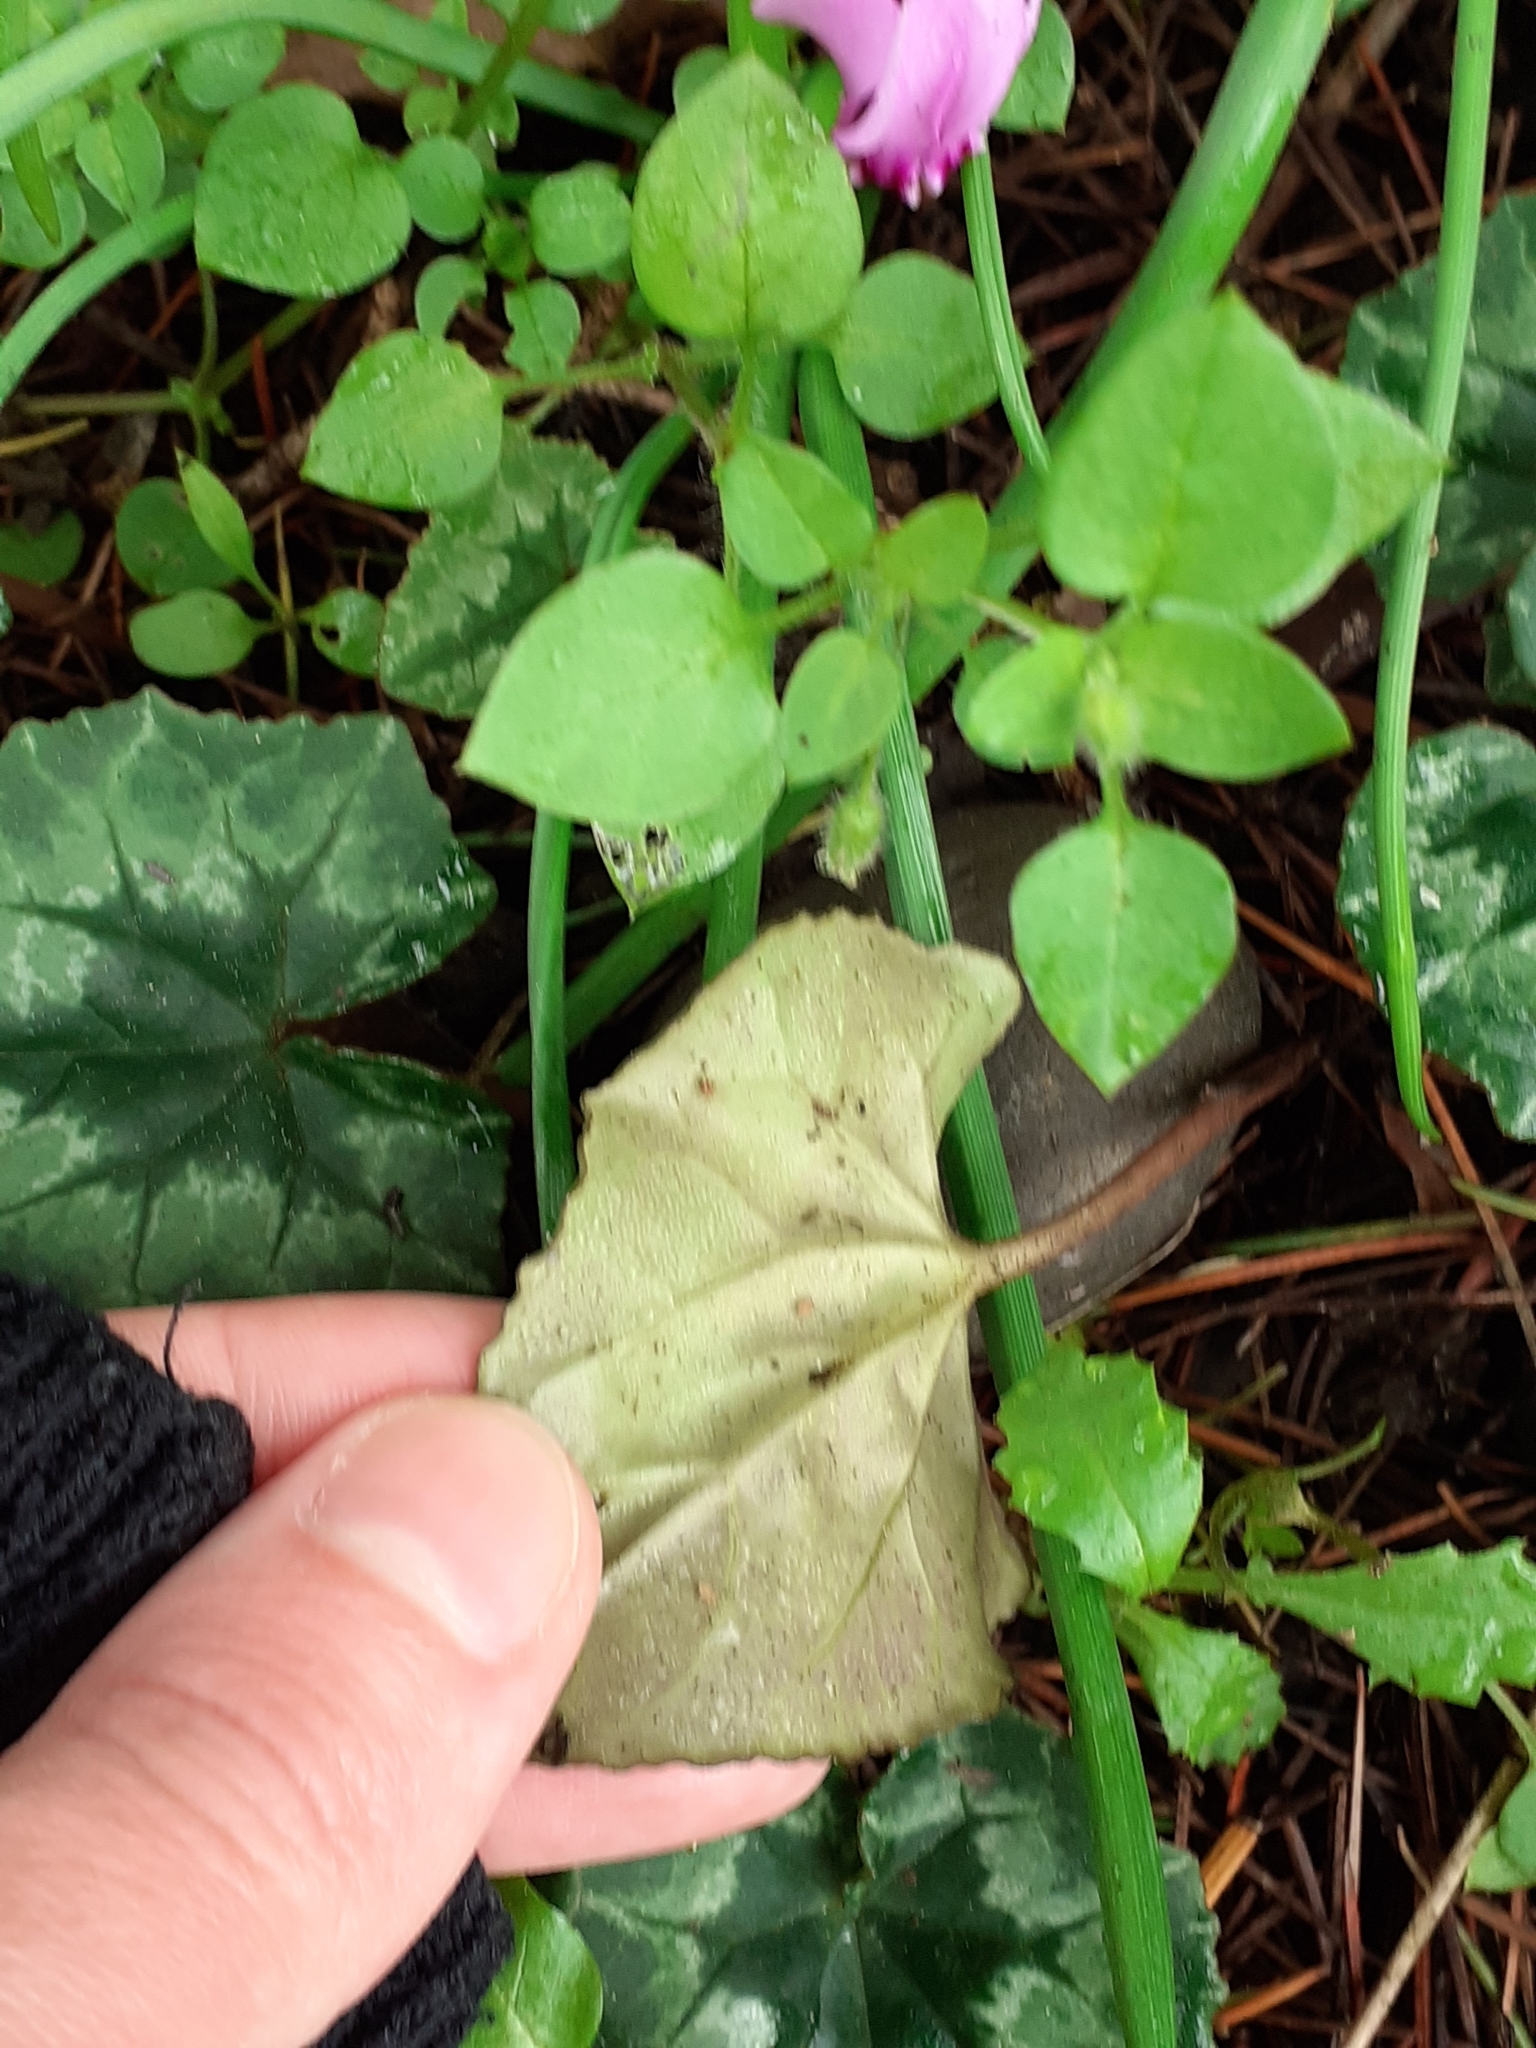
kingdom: Plantae
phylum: Tracheophyta
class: Magnoliopsida
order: Ericales
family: Primulaceae
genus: Cyclamen
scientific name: Cyclamen hederifolium
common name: Sowbread
